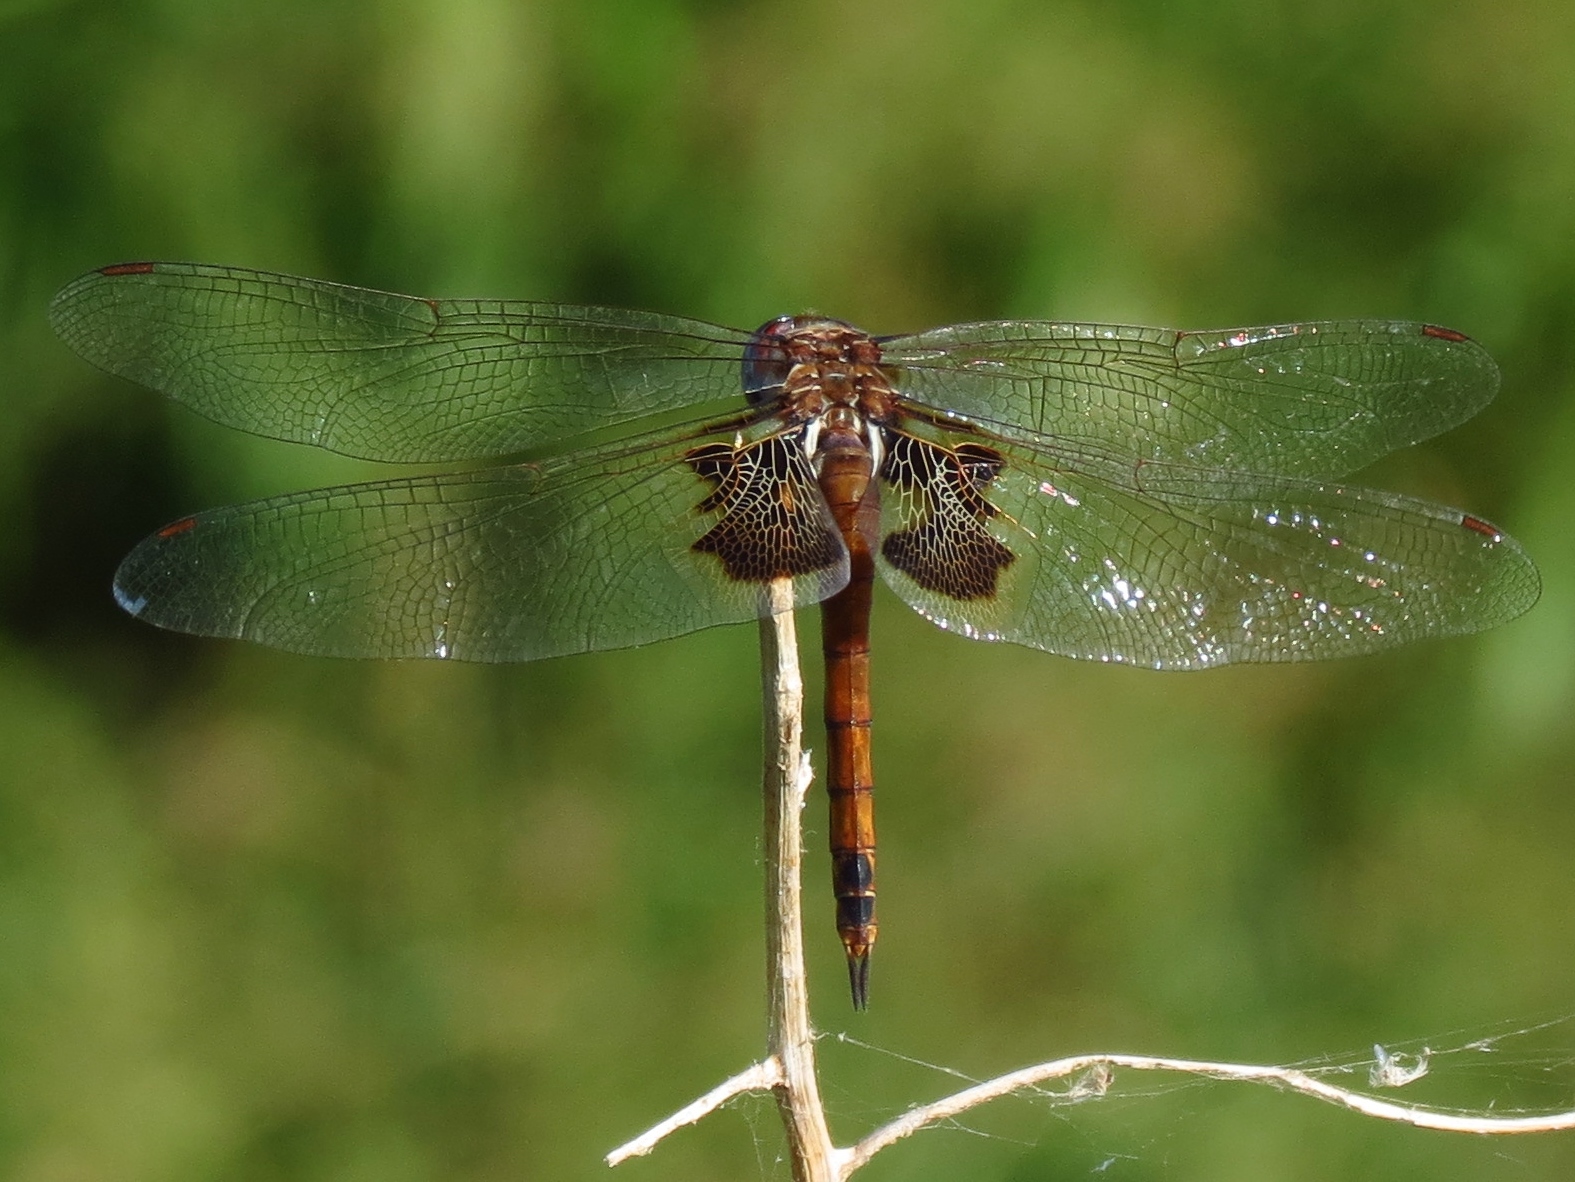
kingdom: Animalia
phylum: Arthropoda
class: Insecta
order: Odonata
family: Libellulidae
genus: Tramea
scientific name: Tramea onusta
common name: Red saddlebags
